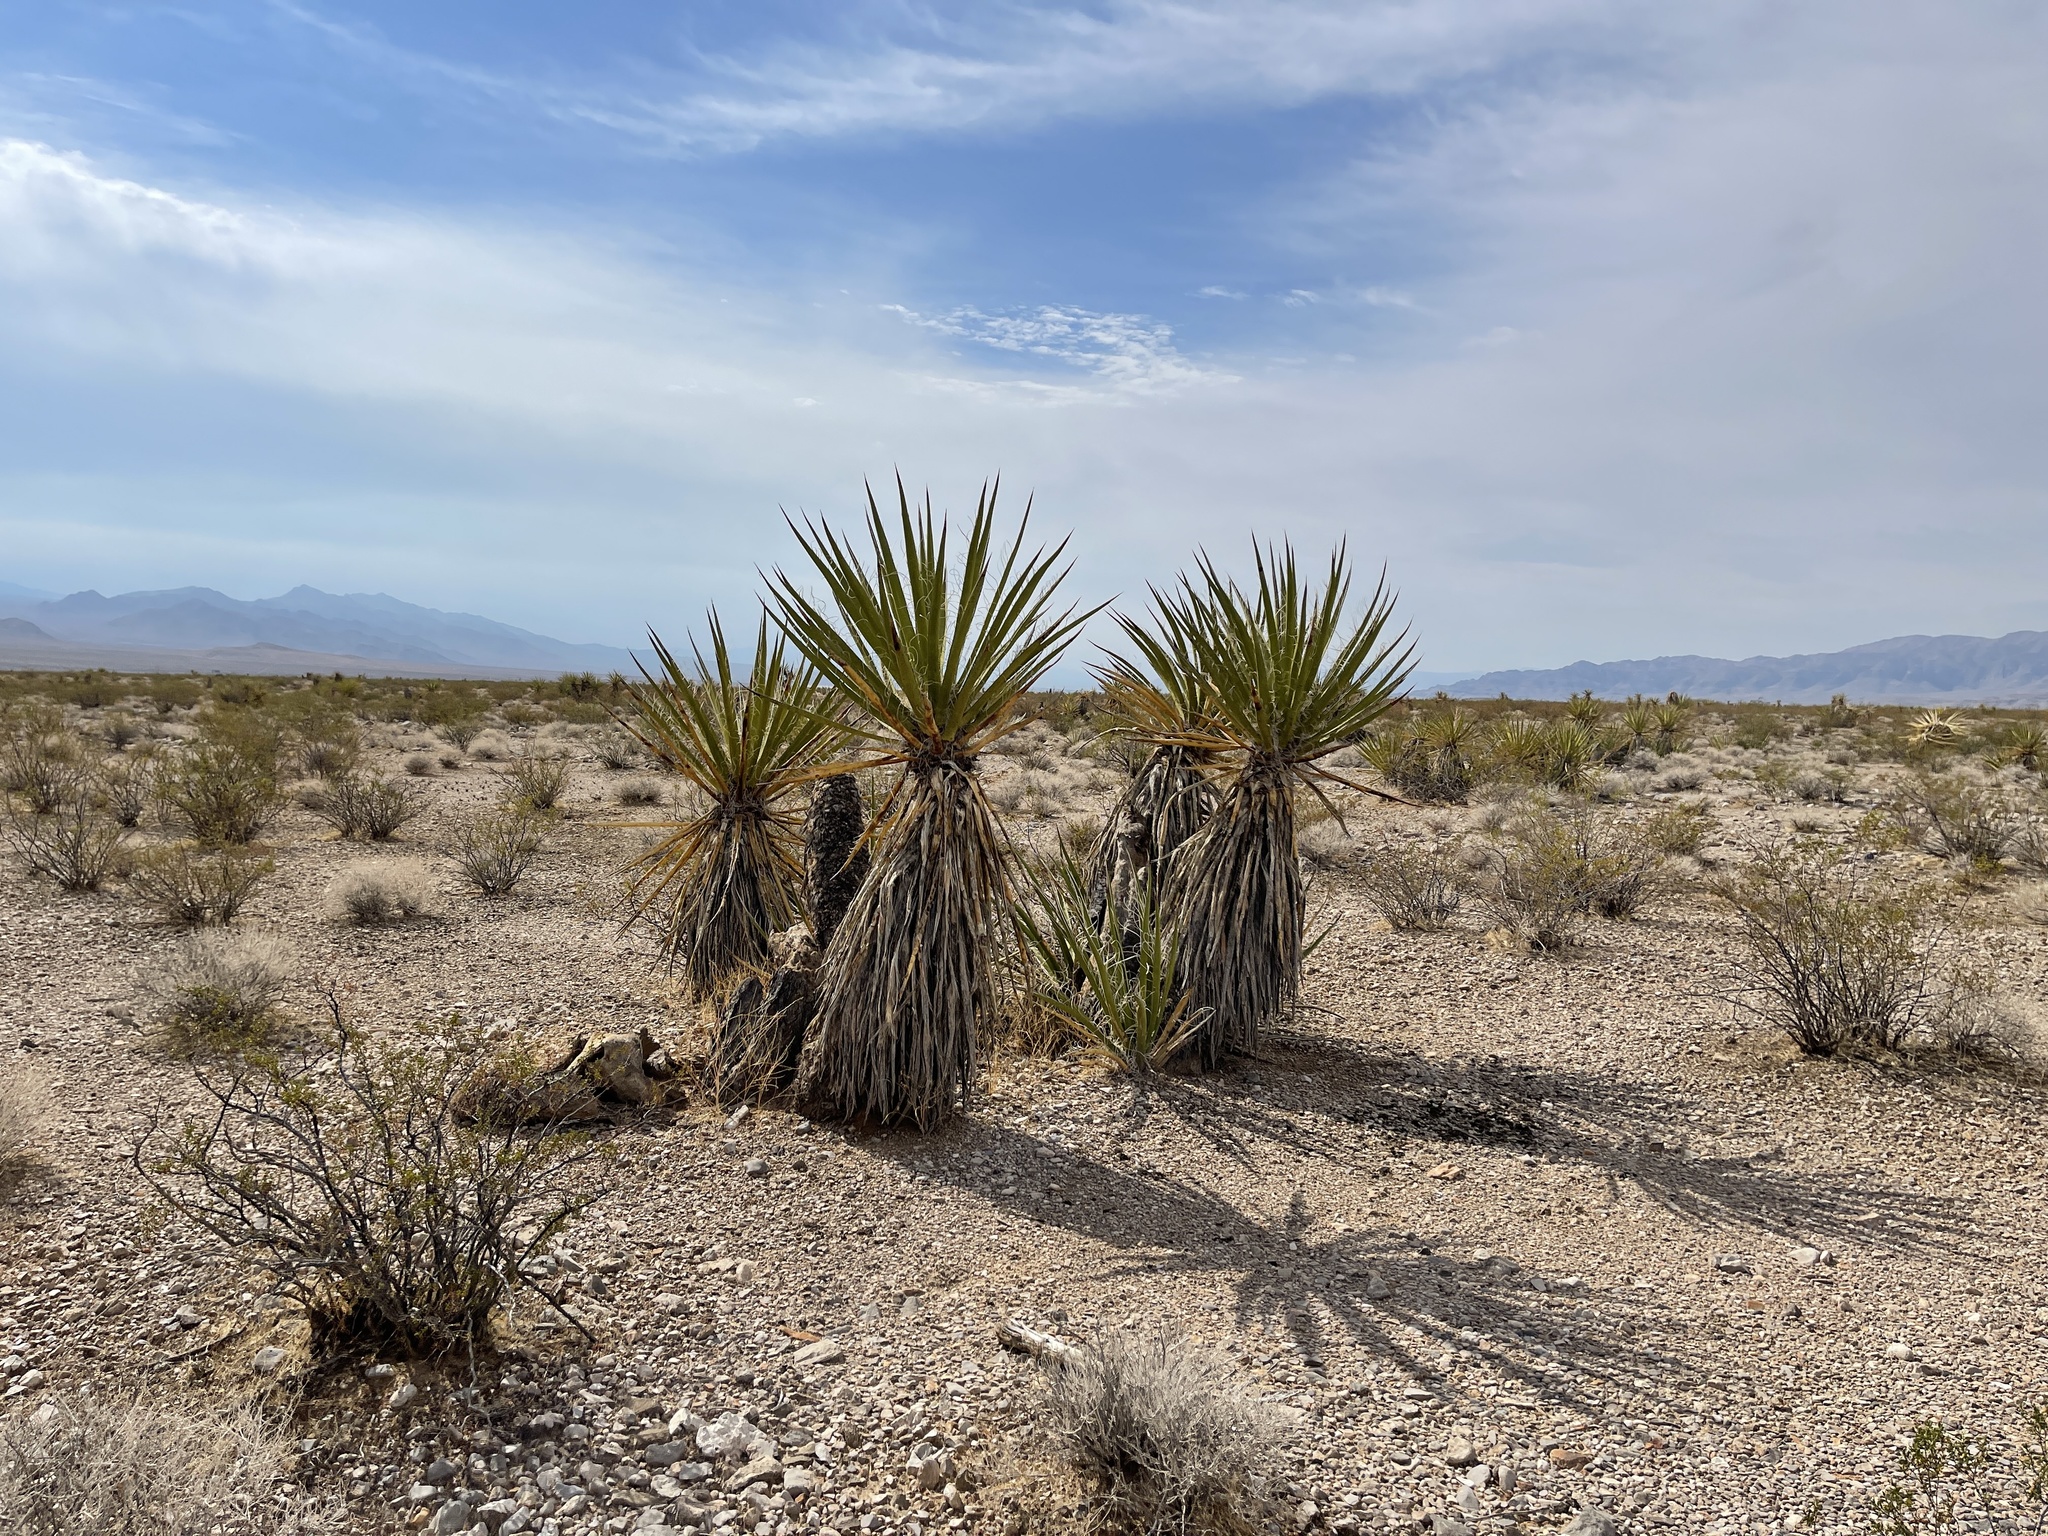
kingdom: Plantae
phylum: Tracheophyta
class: Liliopsida
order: Asparagales
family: Asparagaceae
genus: Yucca
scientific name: Yucca schidigera
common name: Mojave yucca
